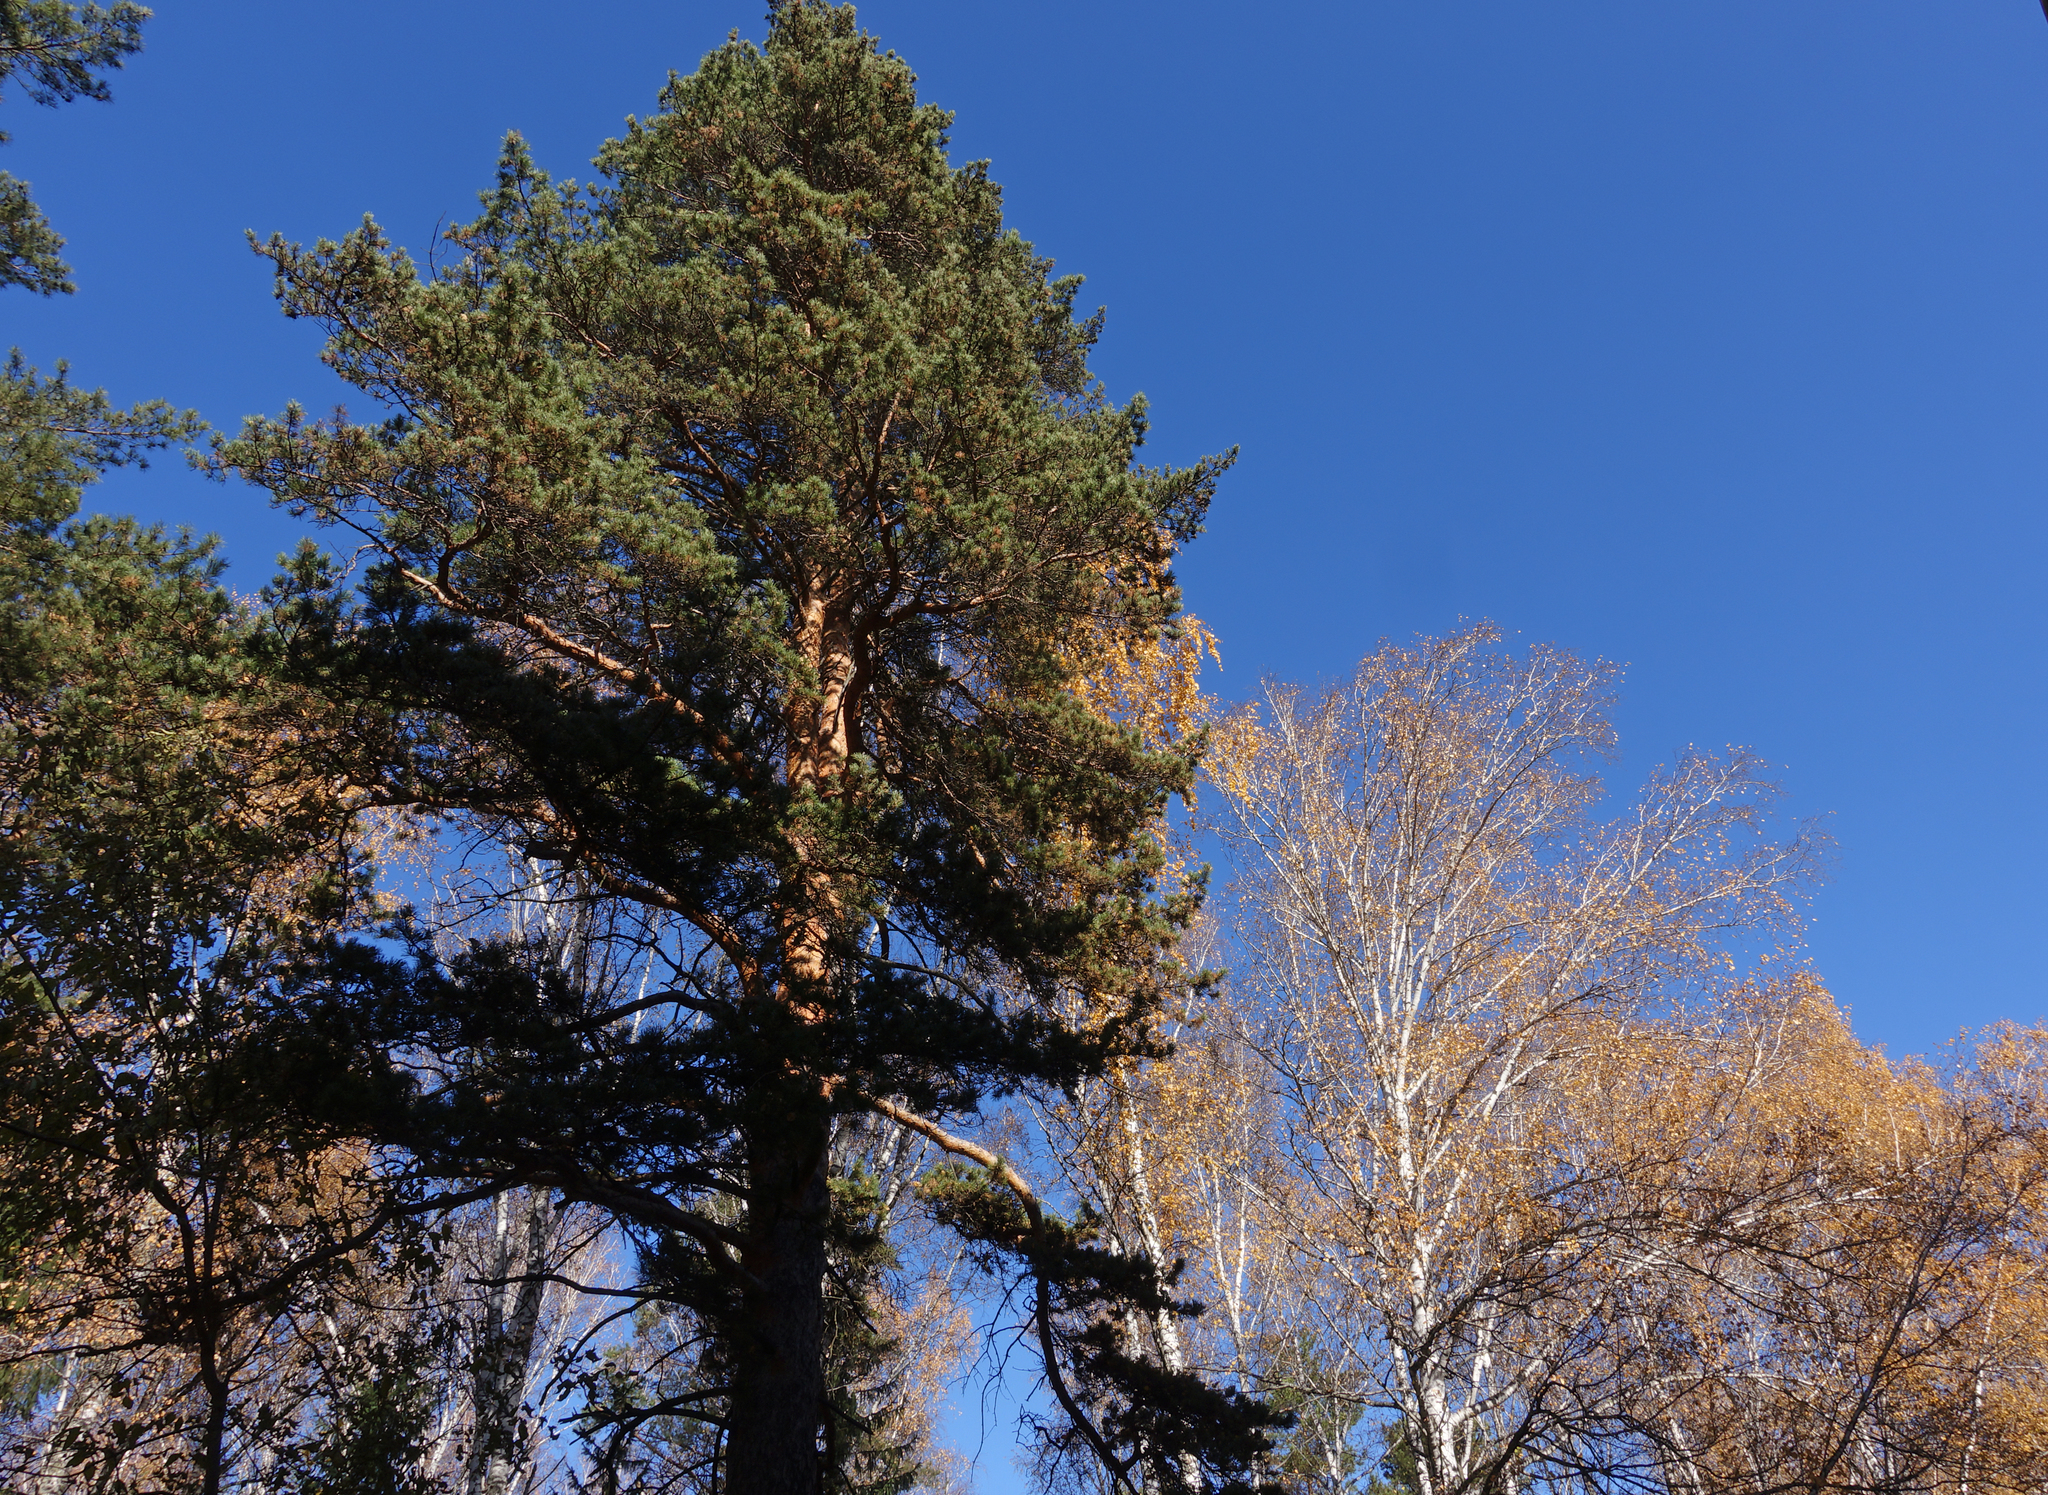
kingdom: Plantae
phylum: Tracheophyta
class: Pinopsida
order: Pinales
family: Pinaceae
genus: Pinus
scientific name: Pinus sylvestris
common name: Scots pine
